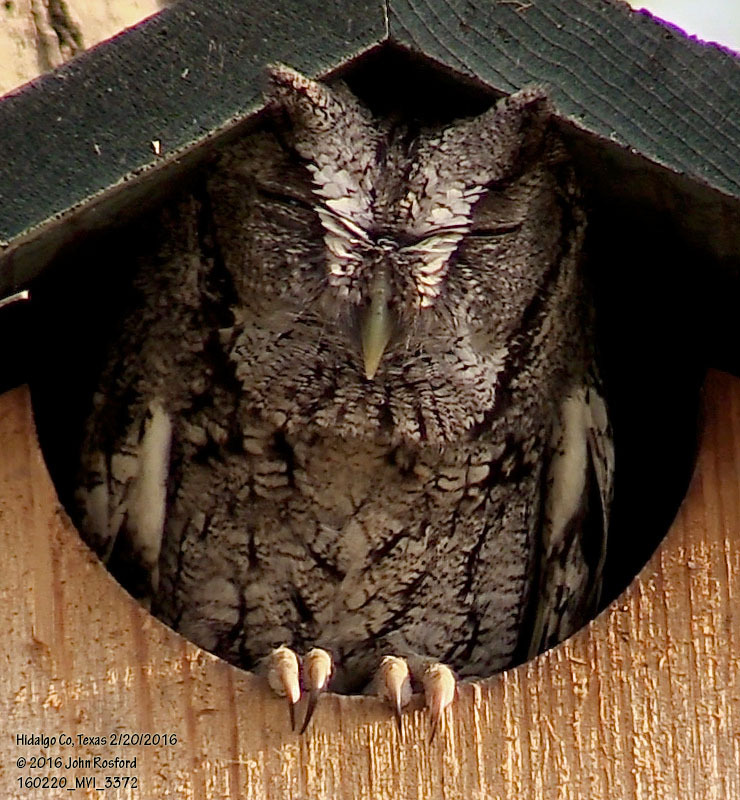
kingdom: Animalia
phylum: Chordata
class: Aves
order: Strigiformes
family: Strigidae
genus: Megascops
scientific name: Megascops asio
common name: Eastern screech-owl
